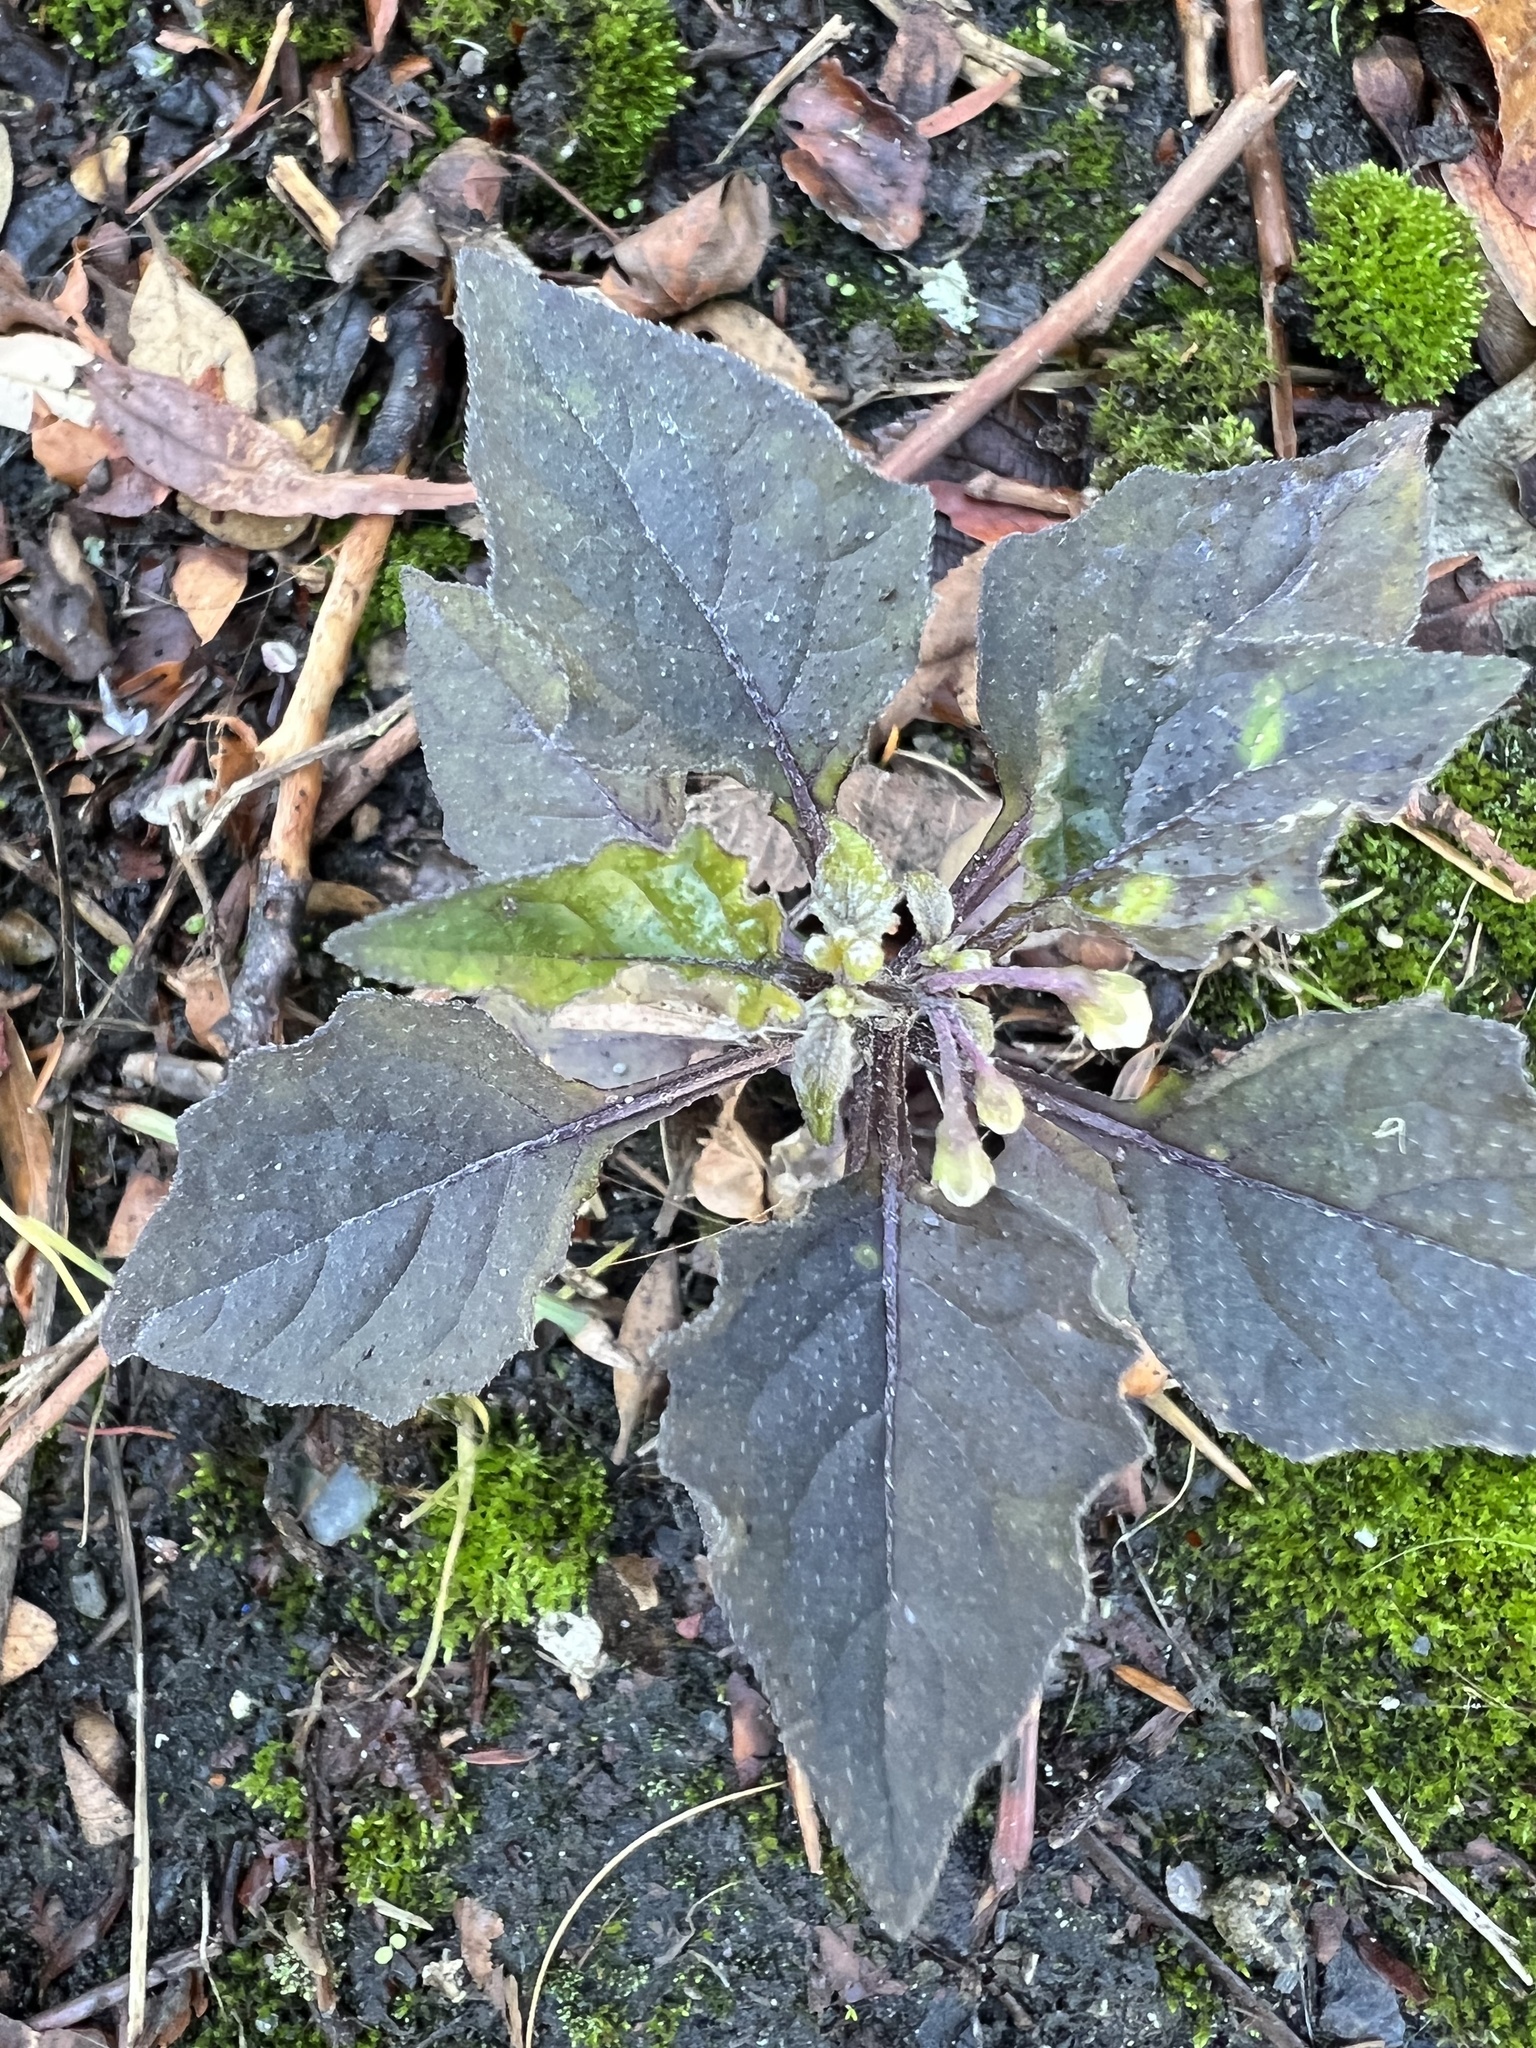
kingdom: Plantae
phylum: Tracheophyta
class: Magnoliopsida
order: Solanales
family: Solanaceae
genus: Solanum
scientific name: Solanum nigrum
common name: Black nightshade
